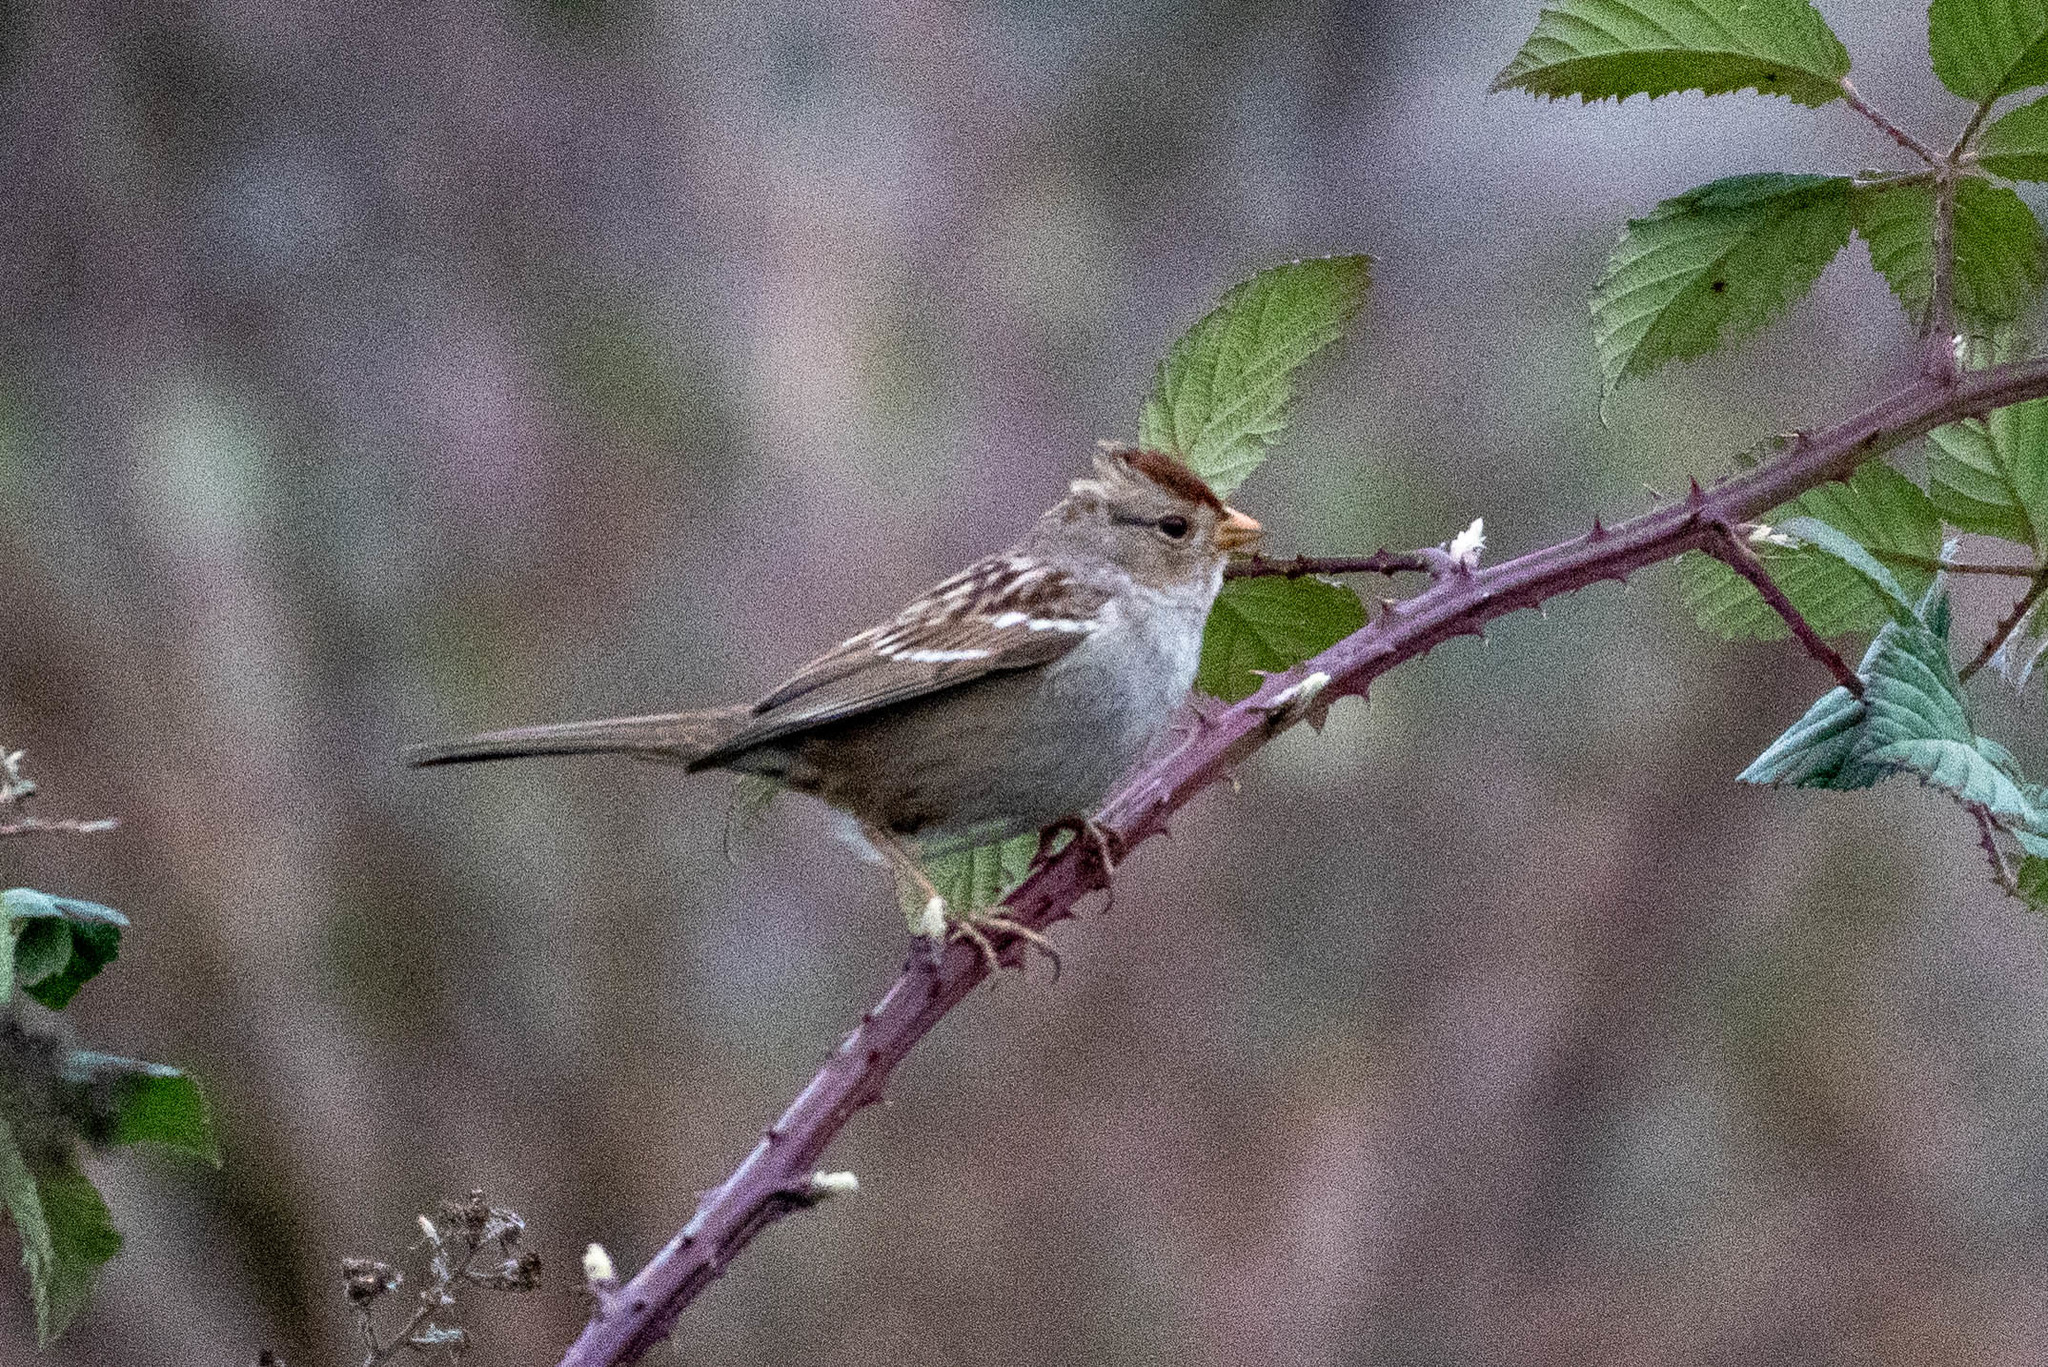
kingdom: Animalia
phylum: Chordata
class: Aves
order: Passeriformes
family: Passerellidae
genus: Zonotrichia
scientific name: Zonotrichia leucophrys
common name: White-crowned sparrow
